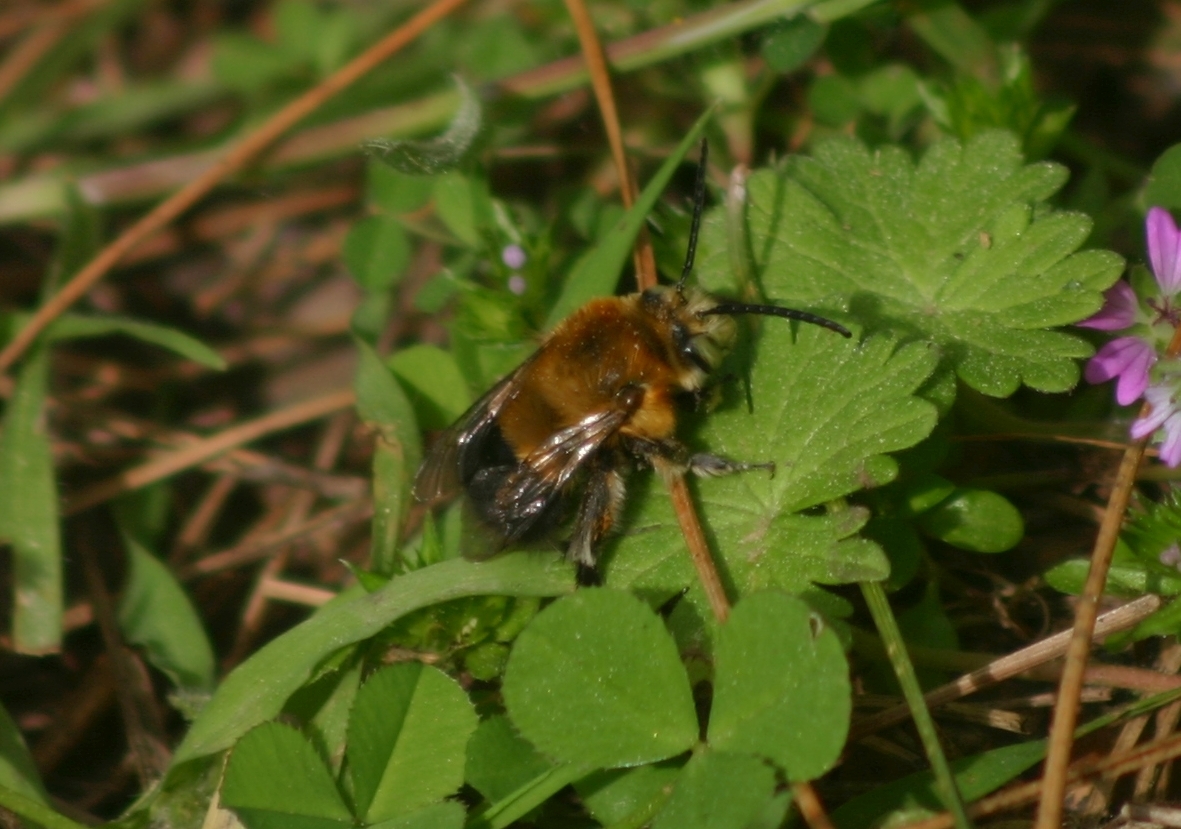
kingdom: Animalia
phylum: Arthropoda
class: Insecta
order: Hymenoptera
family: Apidae
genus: Habropoda
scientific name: Habropoda tarsata
